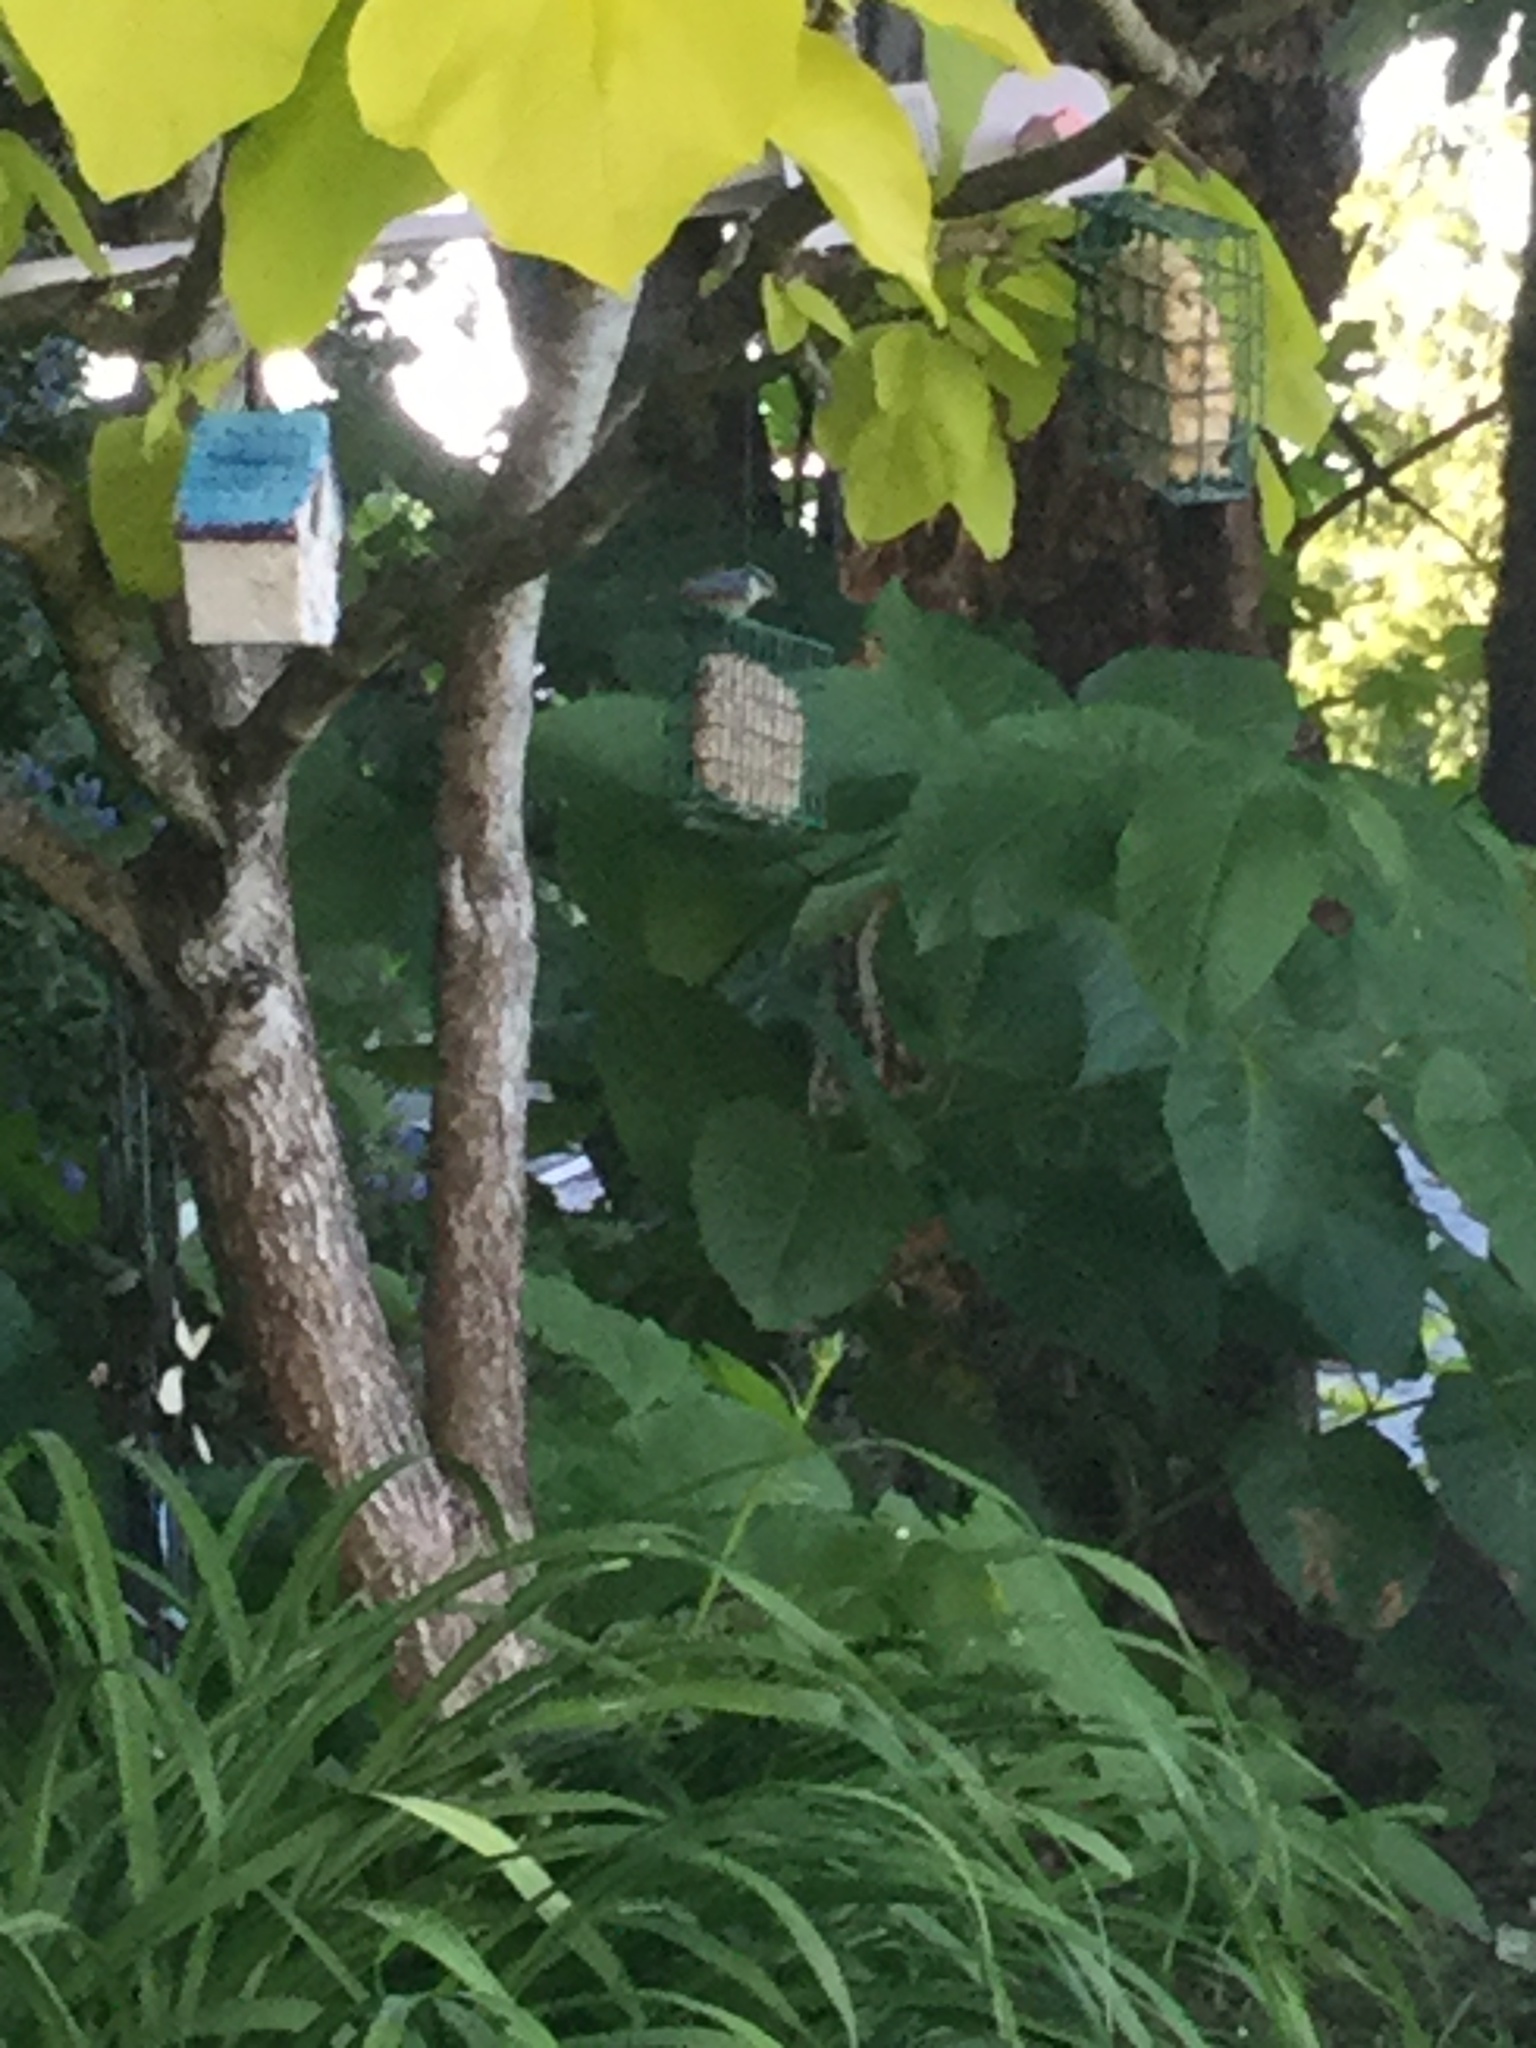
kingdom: Animalia
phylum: Chordata
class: Aves
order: Passeriformes
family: Sittidae
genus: Sitta
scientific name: Sitta canadensis
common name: Red-breasted nuthatch
